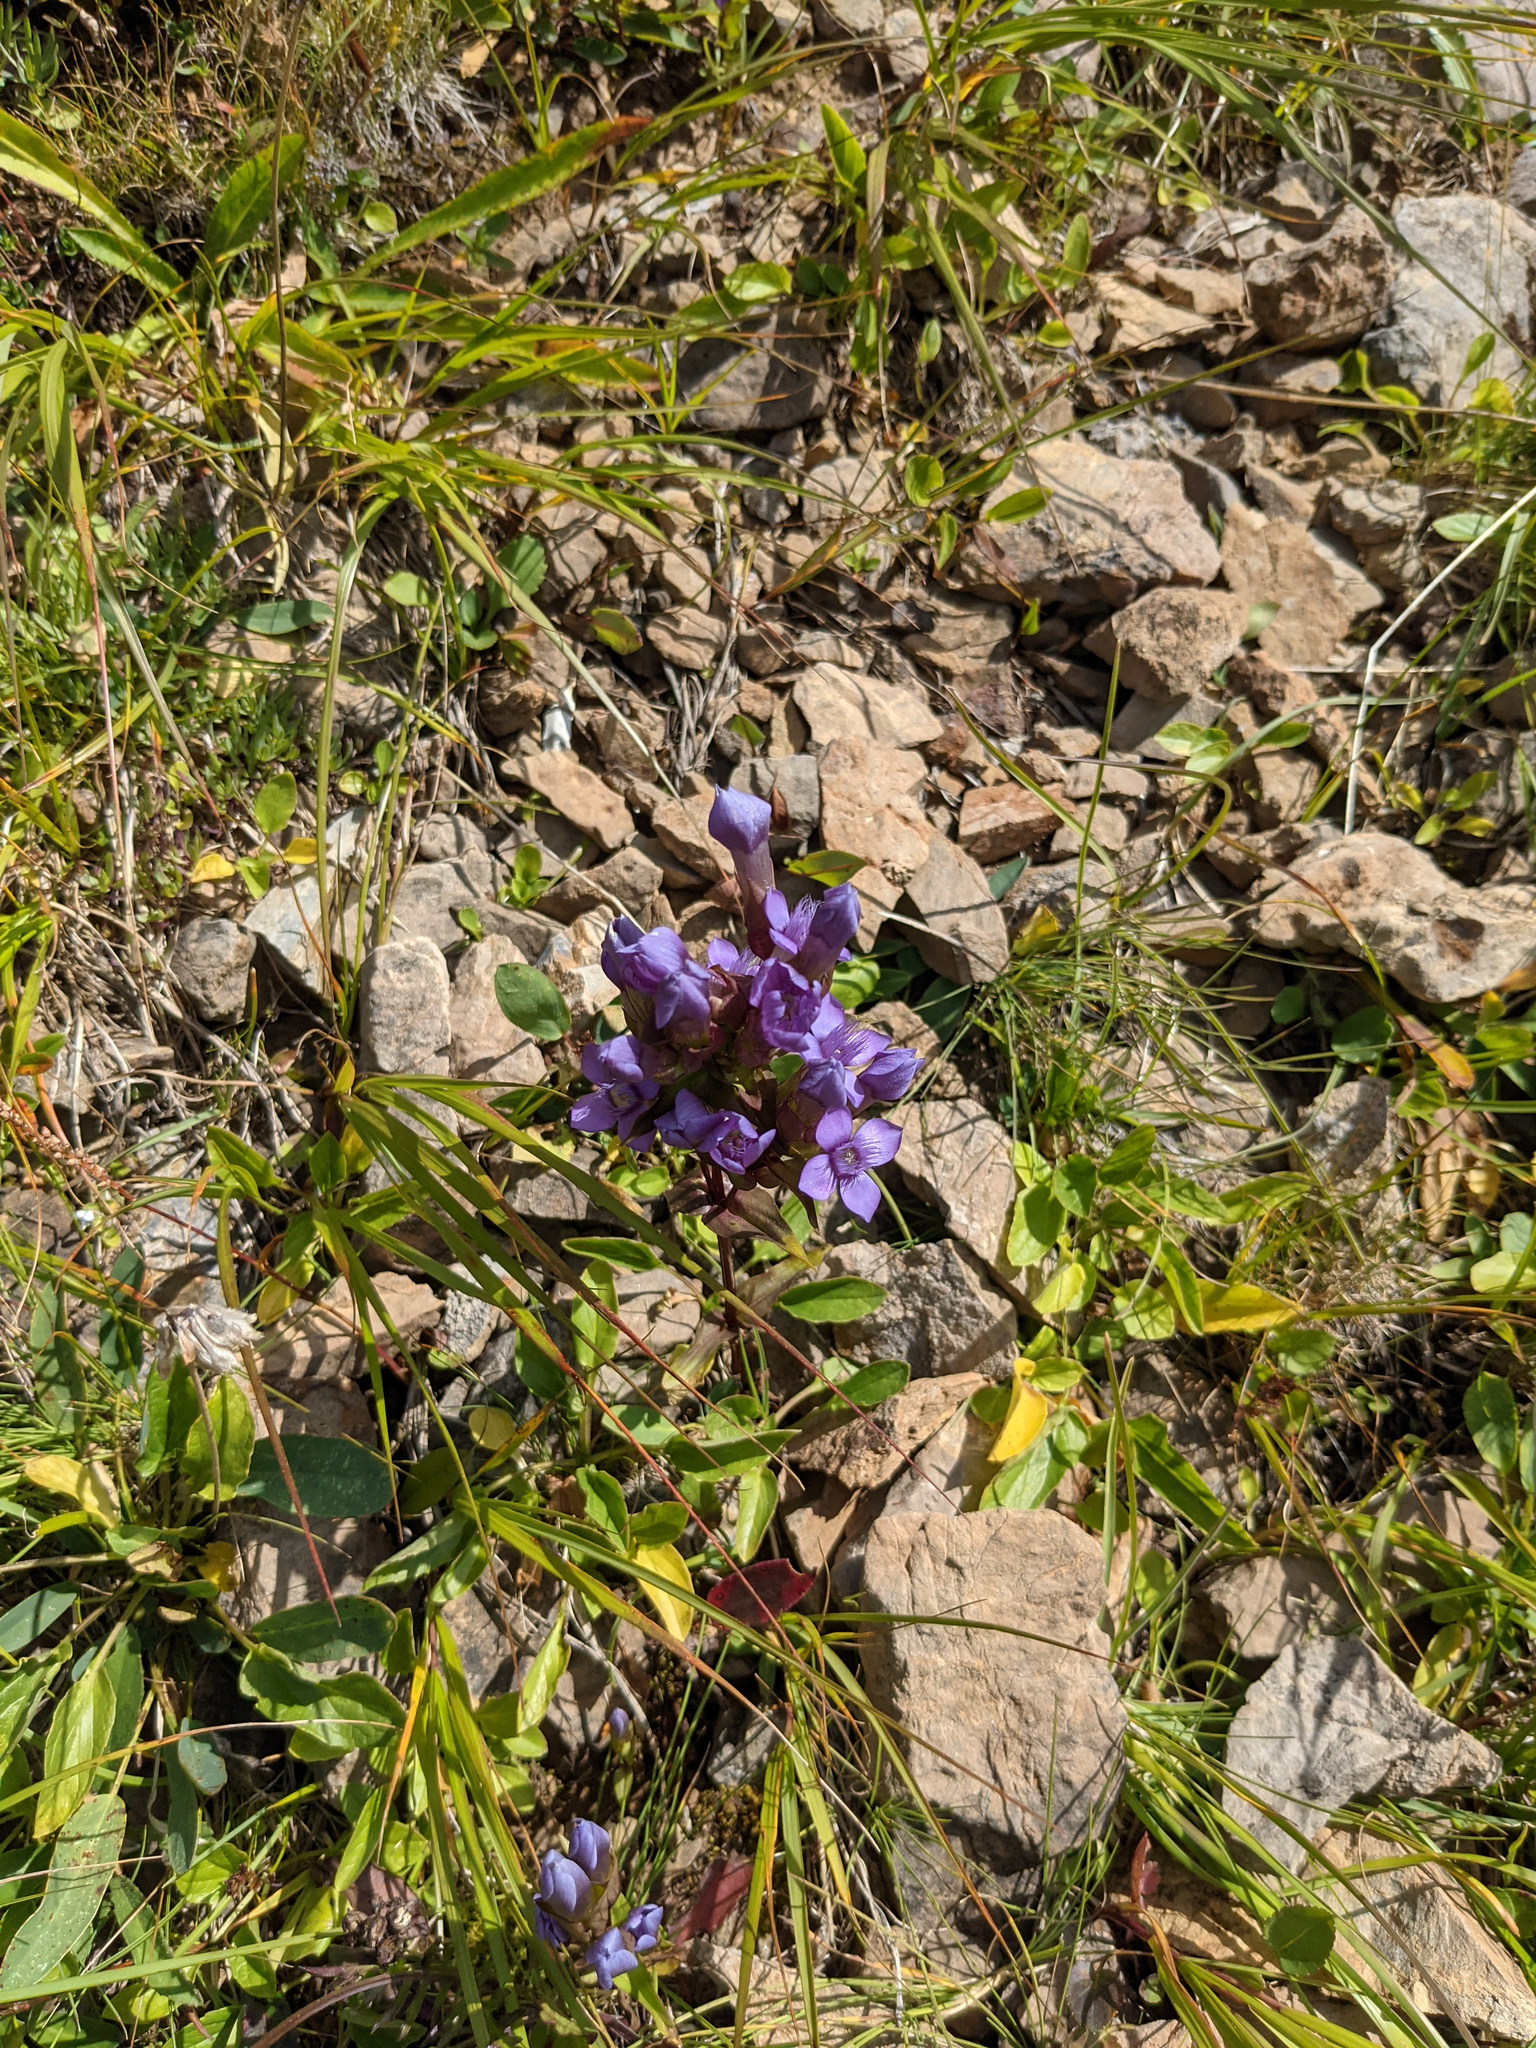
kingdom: Plantae
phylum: Tracheophyta
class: Magnoliopsida
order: Gentianales
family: Gentianaceae
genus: Gentianella
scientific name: Gentianella campestris
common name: Field gentian
